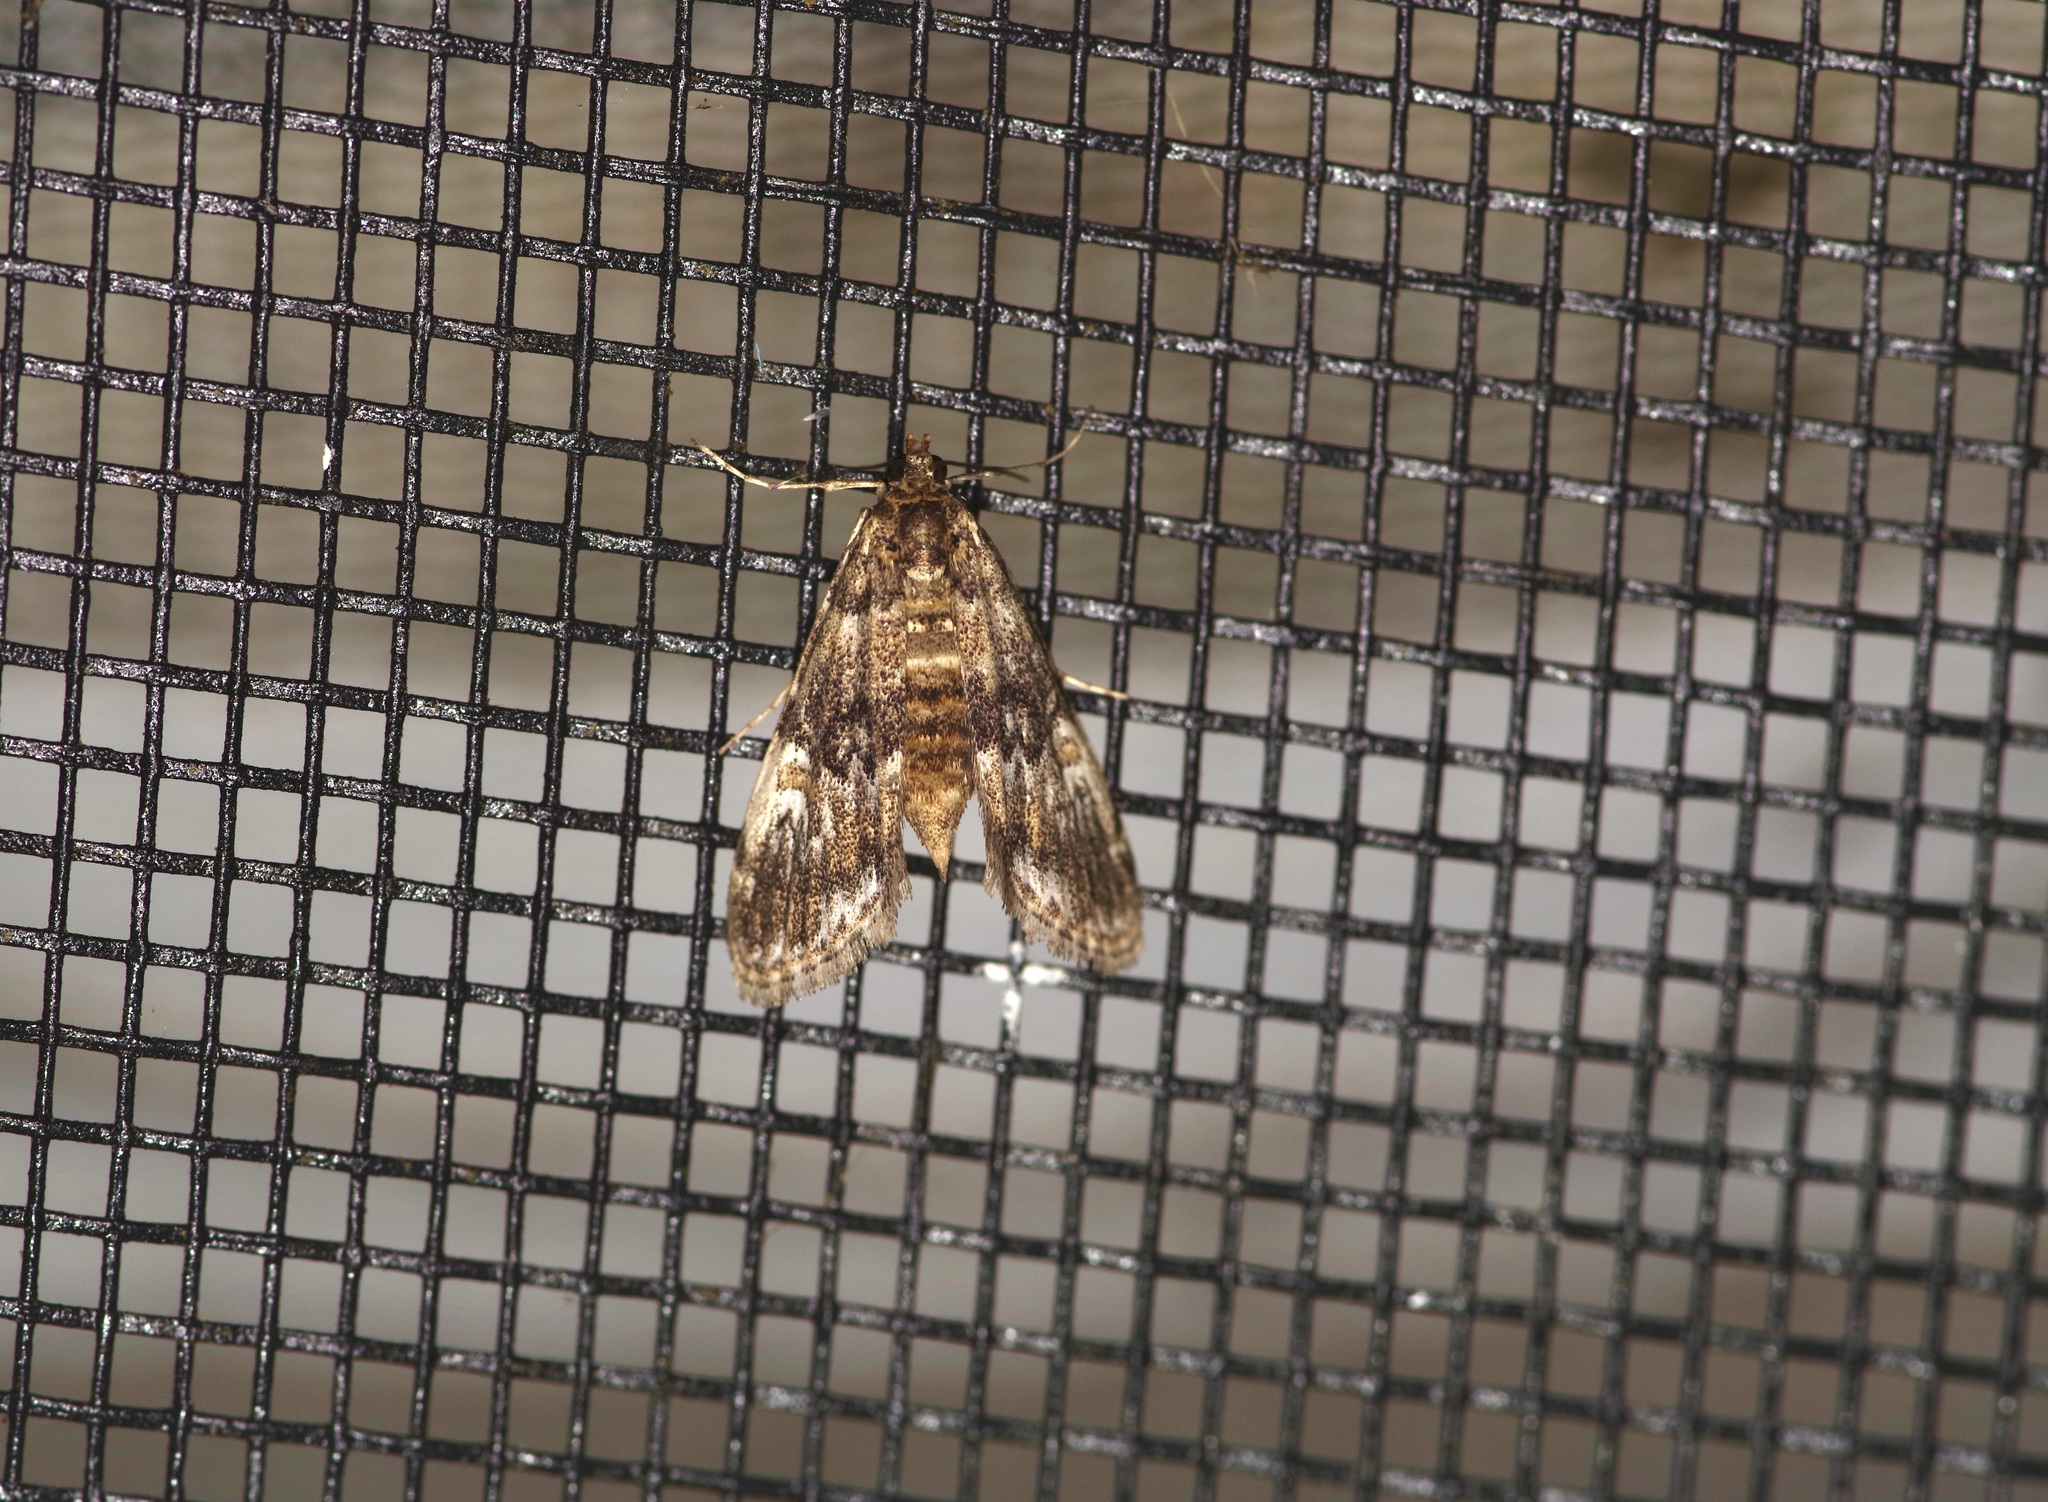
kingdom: Animalia
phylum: Arthropoda
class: Insecta
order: Lepidoptera
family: Crambidae
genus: Elophila
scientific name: Elophila obliteralis
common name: Waterlily leafcutter moth
